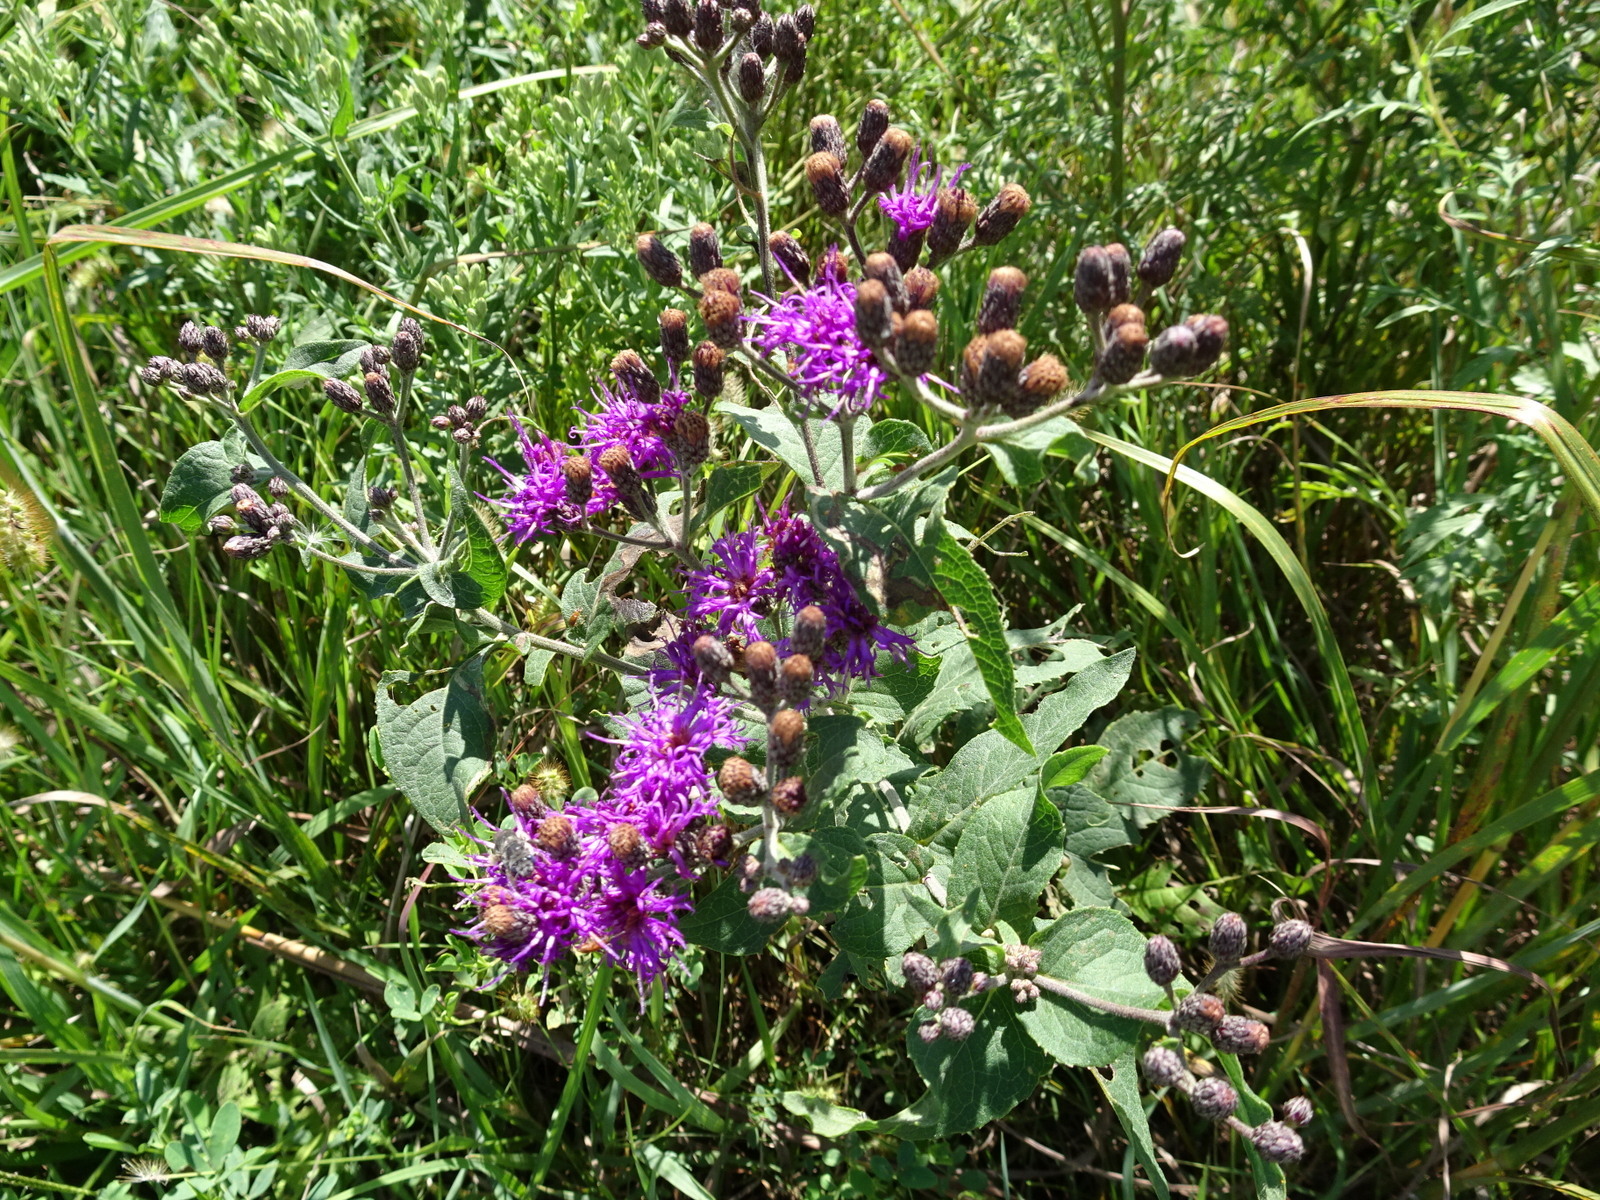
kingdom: Plantae
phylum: Tracheophyta
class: Magnoliopsida
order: Asterales
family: Asteraceae
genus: Vernonia
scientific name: Vernonia baldwinii
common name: Western ironweed
